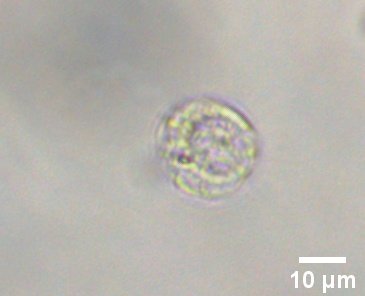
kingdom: Chromista
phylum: Ochrophyta
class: Chrysophyceae
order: Ochromonadales
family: Paraphysomonadaceae
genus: Paraphysomonas
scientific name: Paraphysomonas
